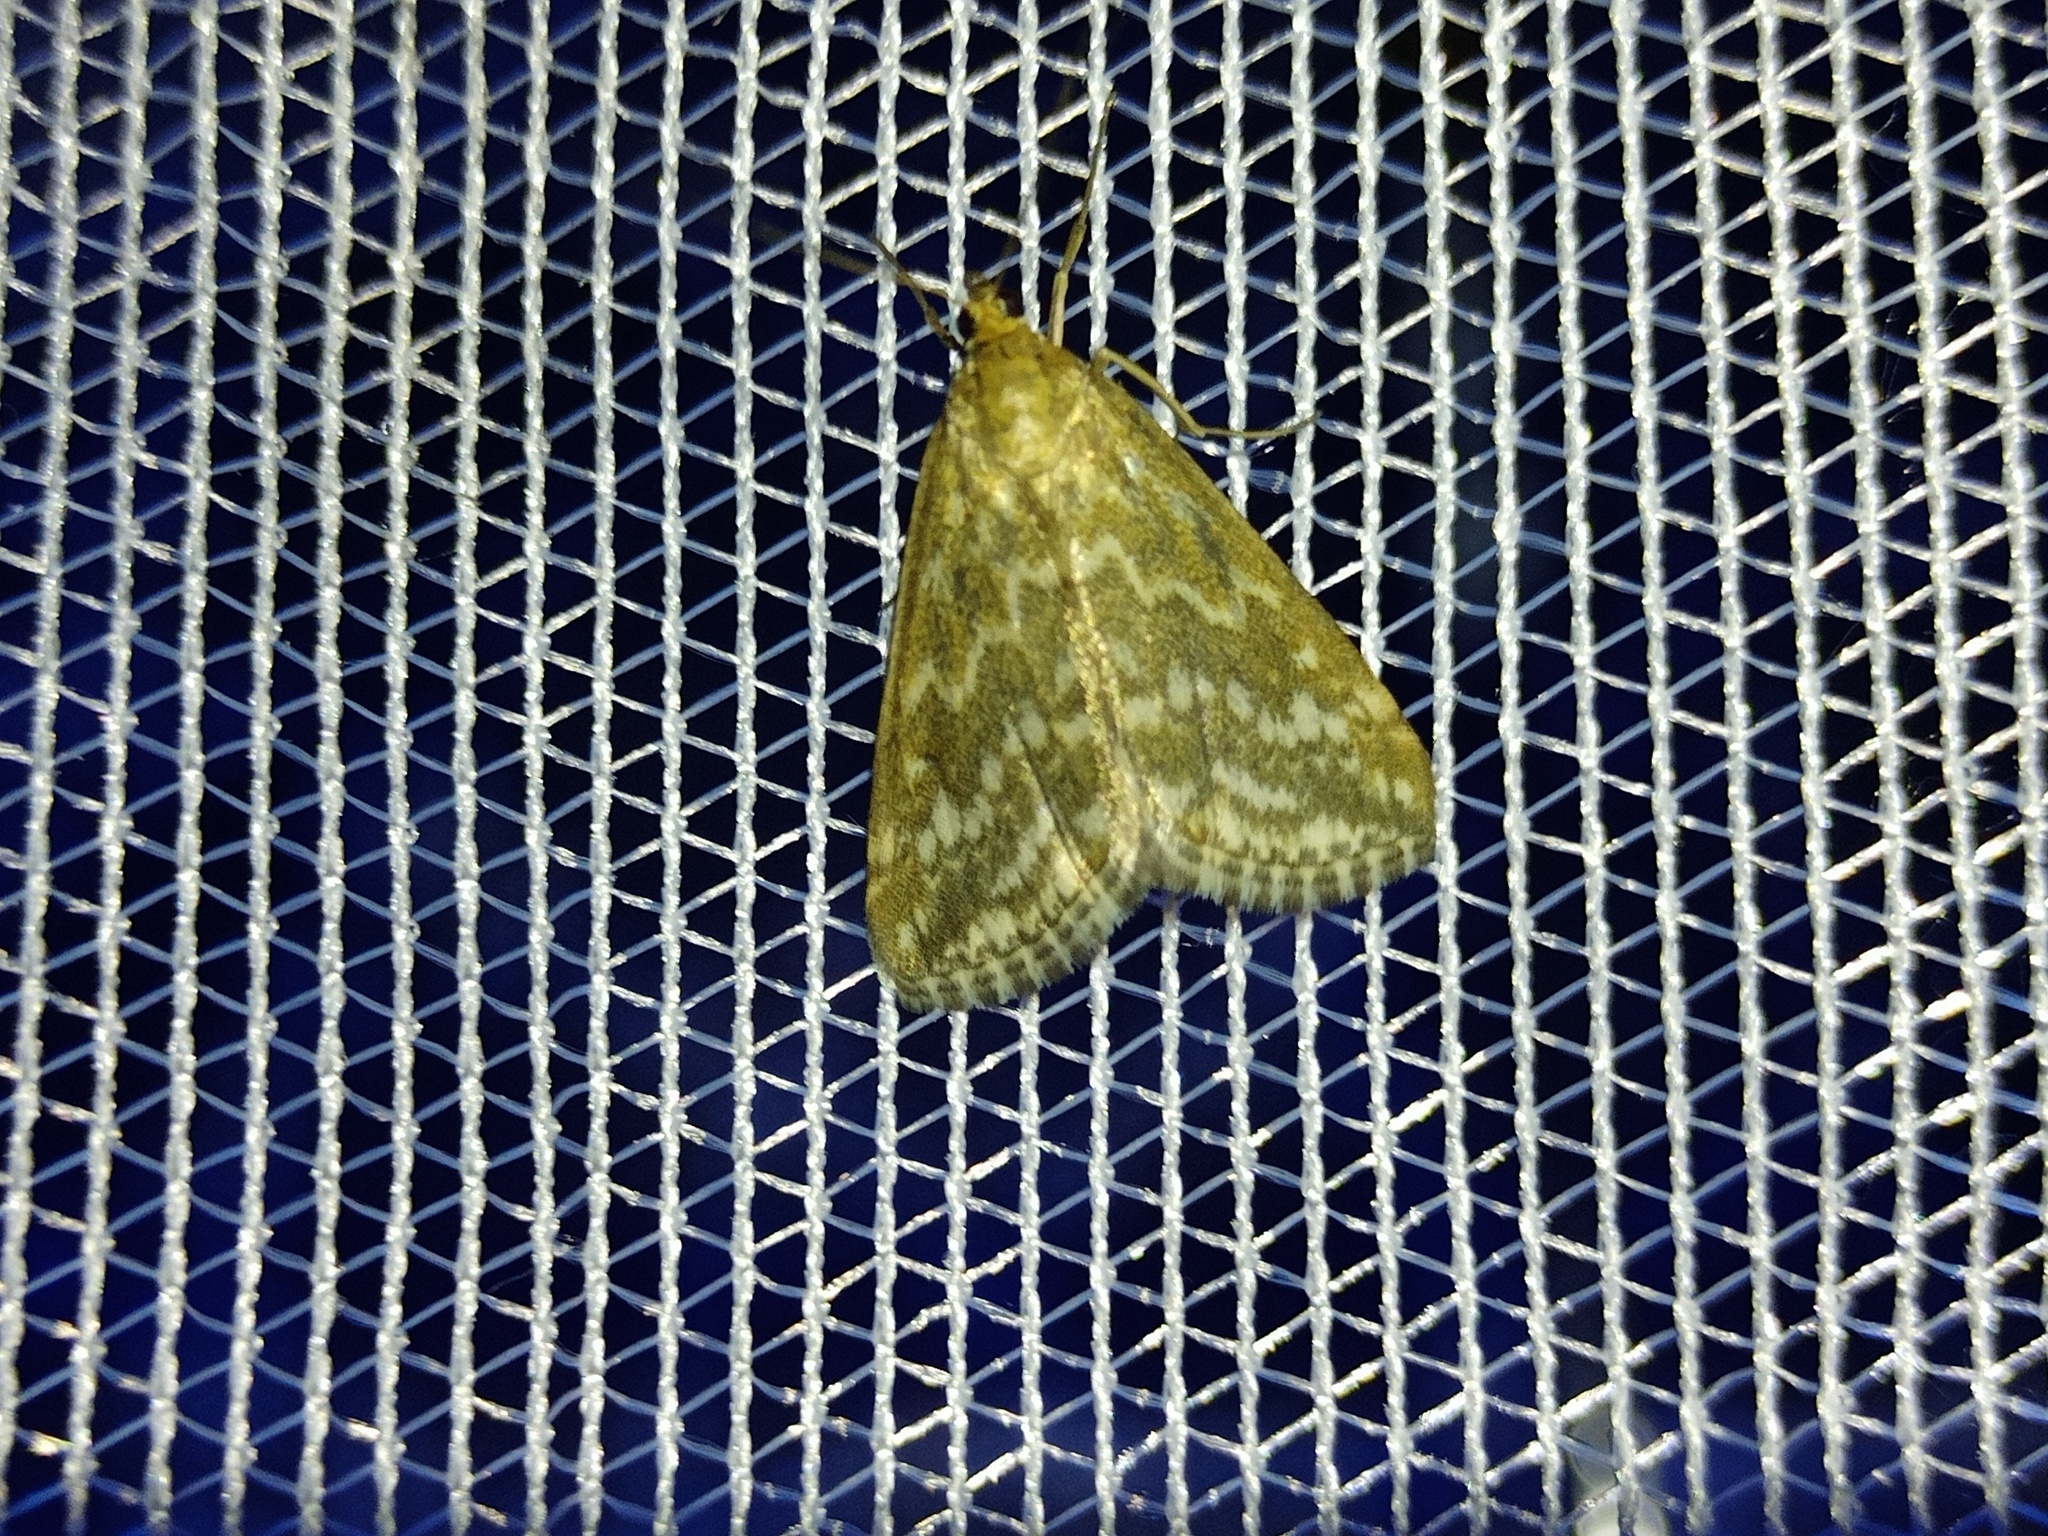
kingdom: Animalia
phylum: Arthropoda
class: Insecta
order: Lepidoptera
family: Crambidae
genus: Evergestis
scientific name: Evergestis frumentalis
